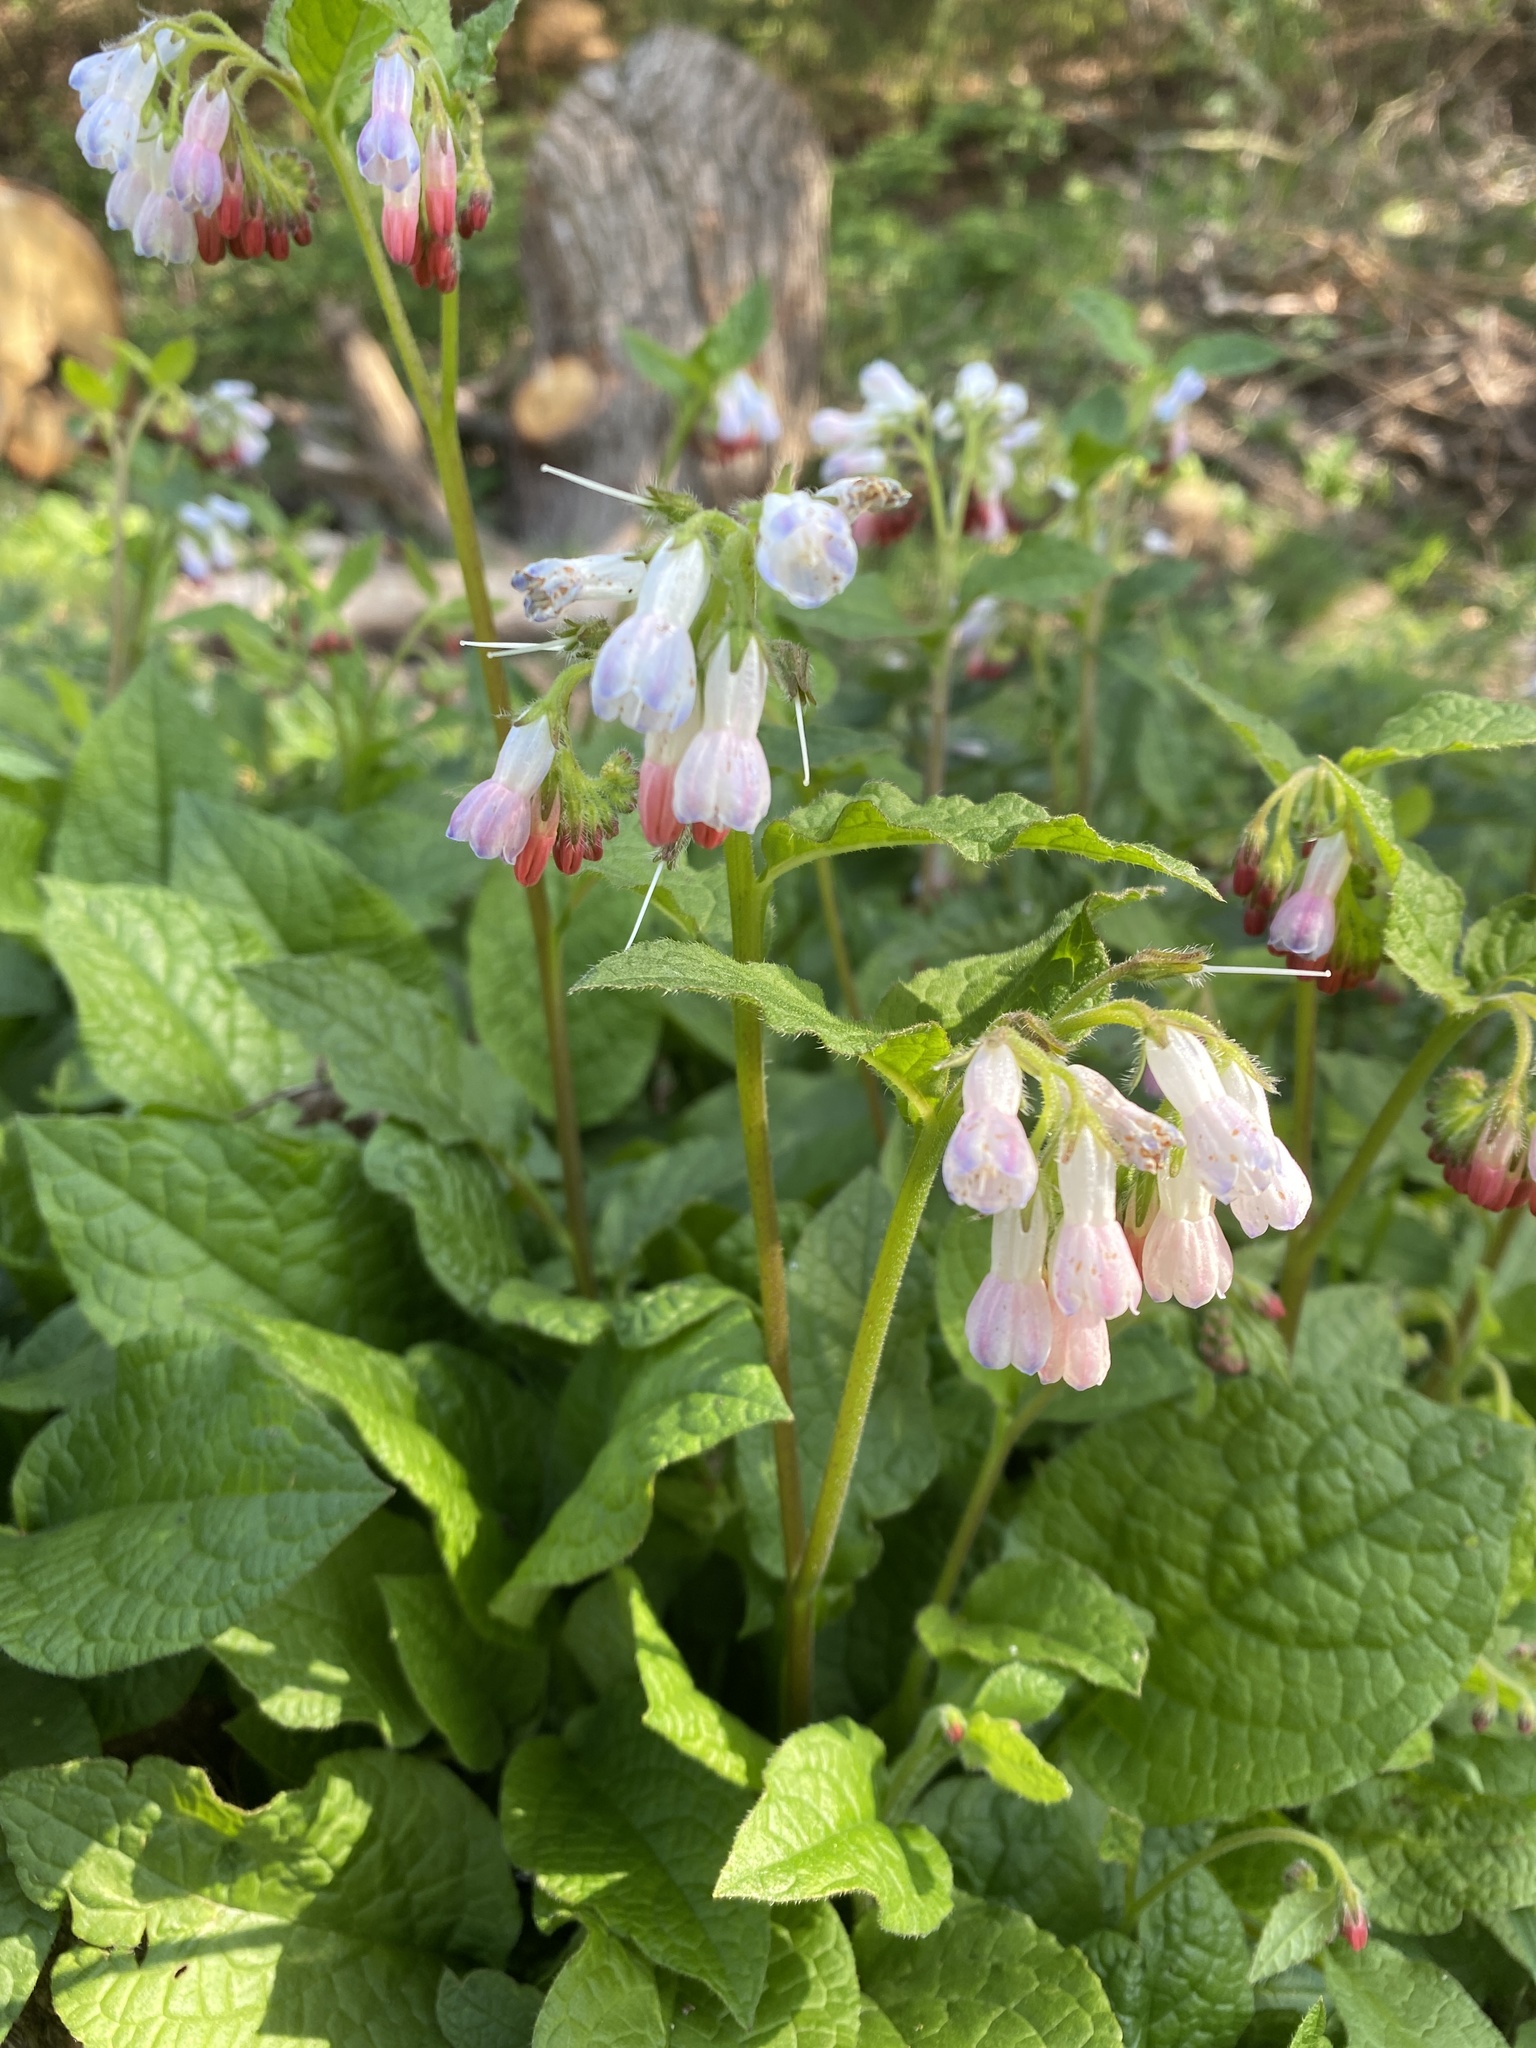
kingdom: Plantae
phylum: Tracheophyta
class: Magnoliopsida
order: Boraginales
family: Boraginaceae
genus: Symphytum
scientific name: Symphytum officinale
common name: Common comfrey
